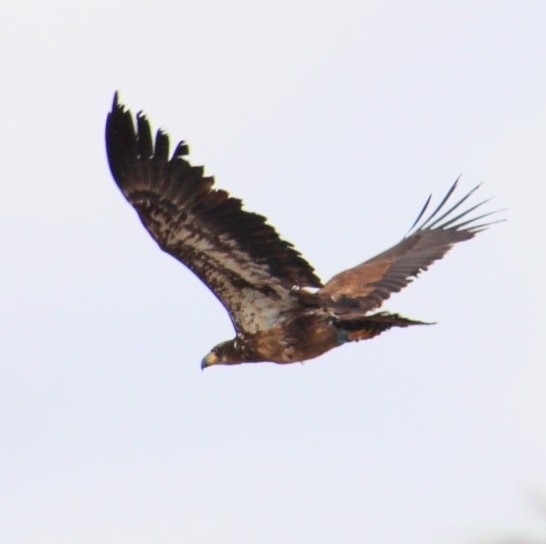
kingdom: Animalia
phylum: Chordata
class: Aves
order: Accipitriformes
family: Accipitridae
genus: Haliaeetus
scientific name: Haliaeetus leucocephalus
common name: Bald eagle
